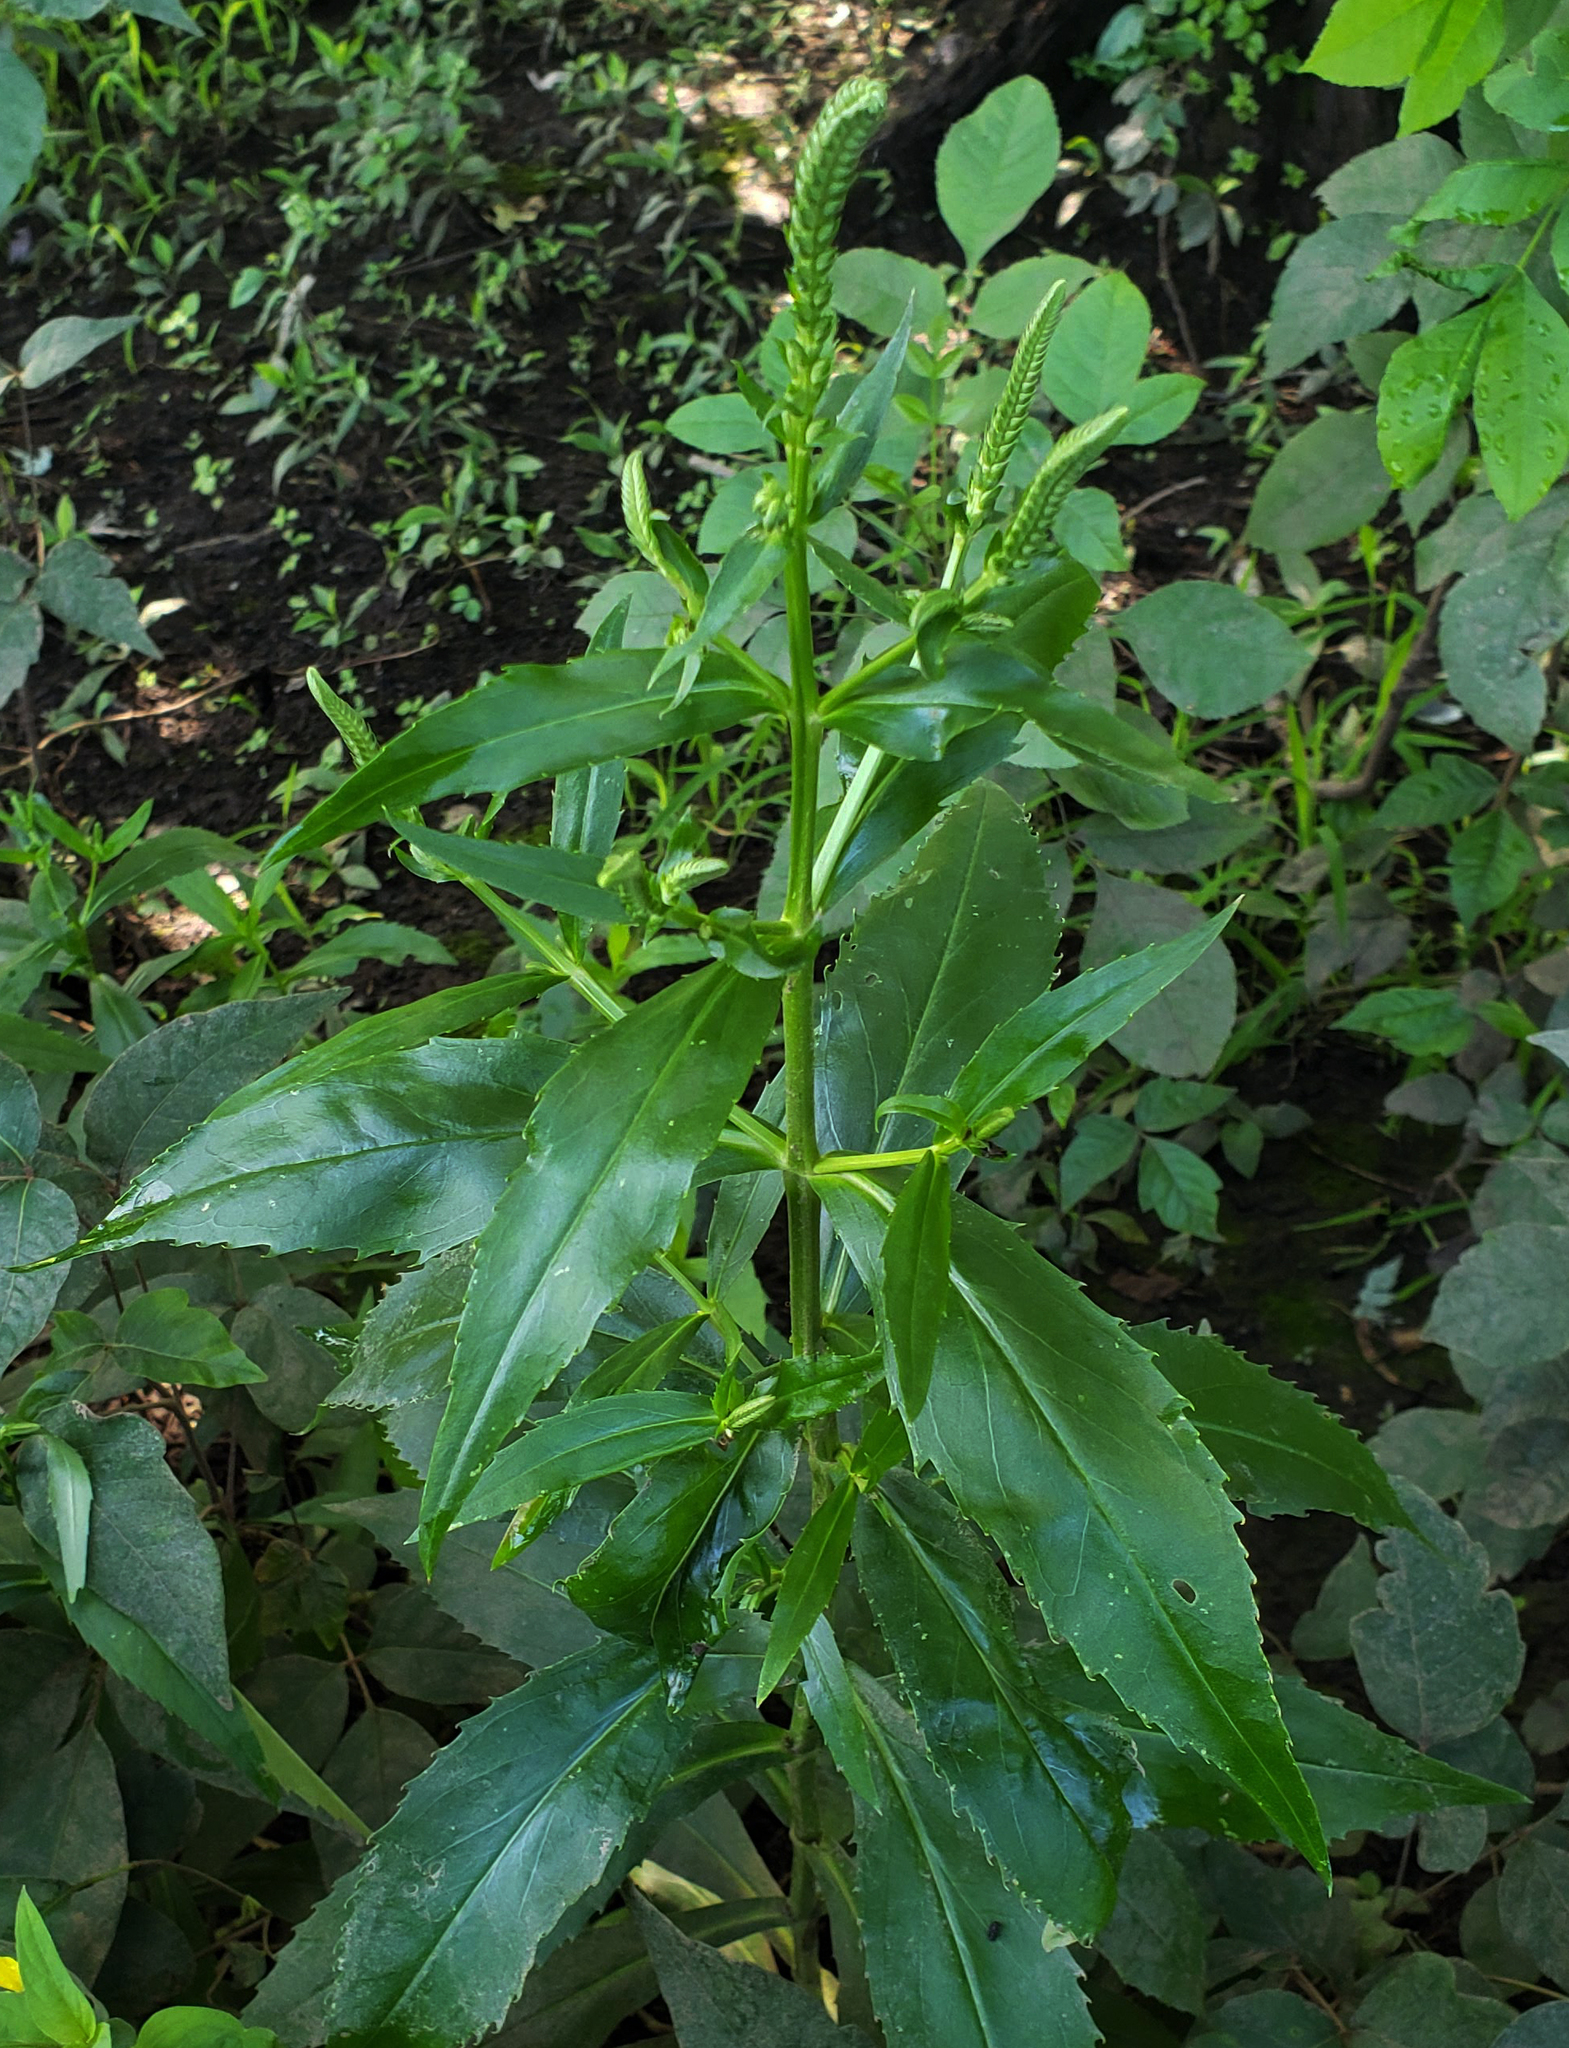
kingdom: Plantae
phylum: Tracheophyta
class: Magnoliopsida
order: Lamiales
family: Lamiaceae
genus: Physostegia
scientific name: Physostegia virginiana
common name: Obedient-plant
